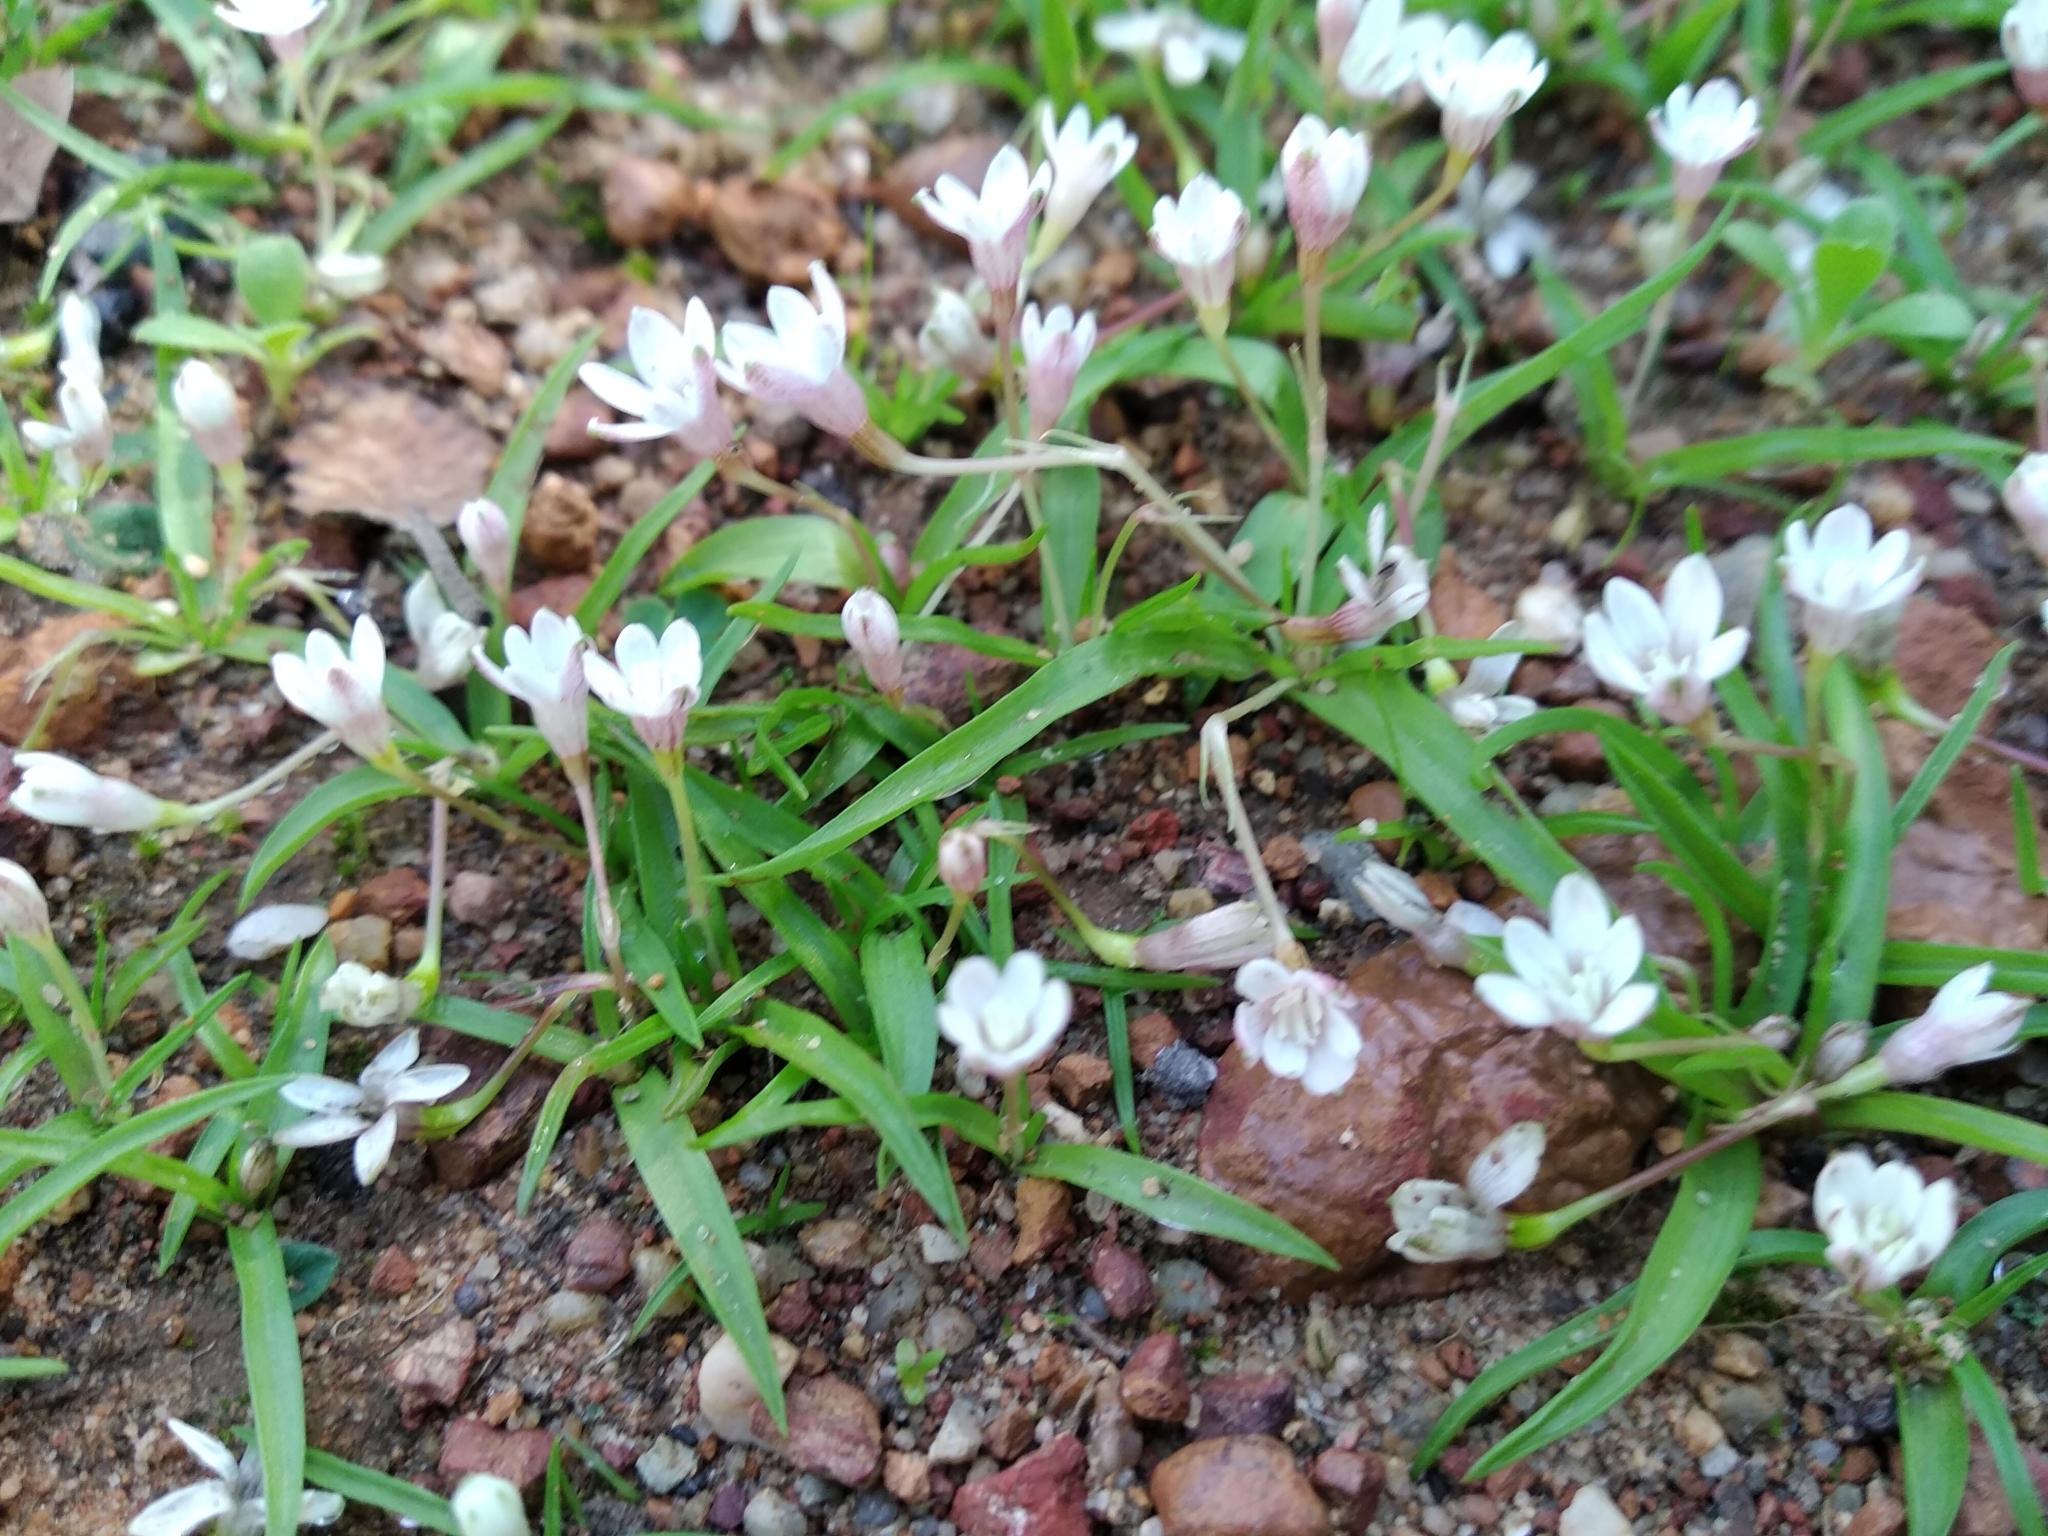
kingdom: Plantae
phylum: Tracheophyta
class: Liliopsida
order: Asparagales
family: Hypoxidaceae
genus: Pauridia
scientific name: Pauridia minuta
